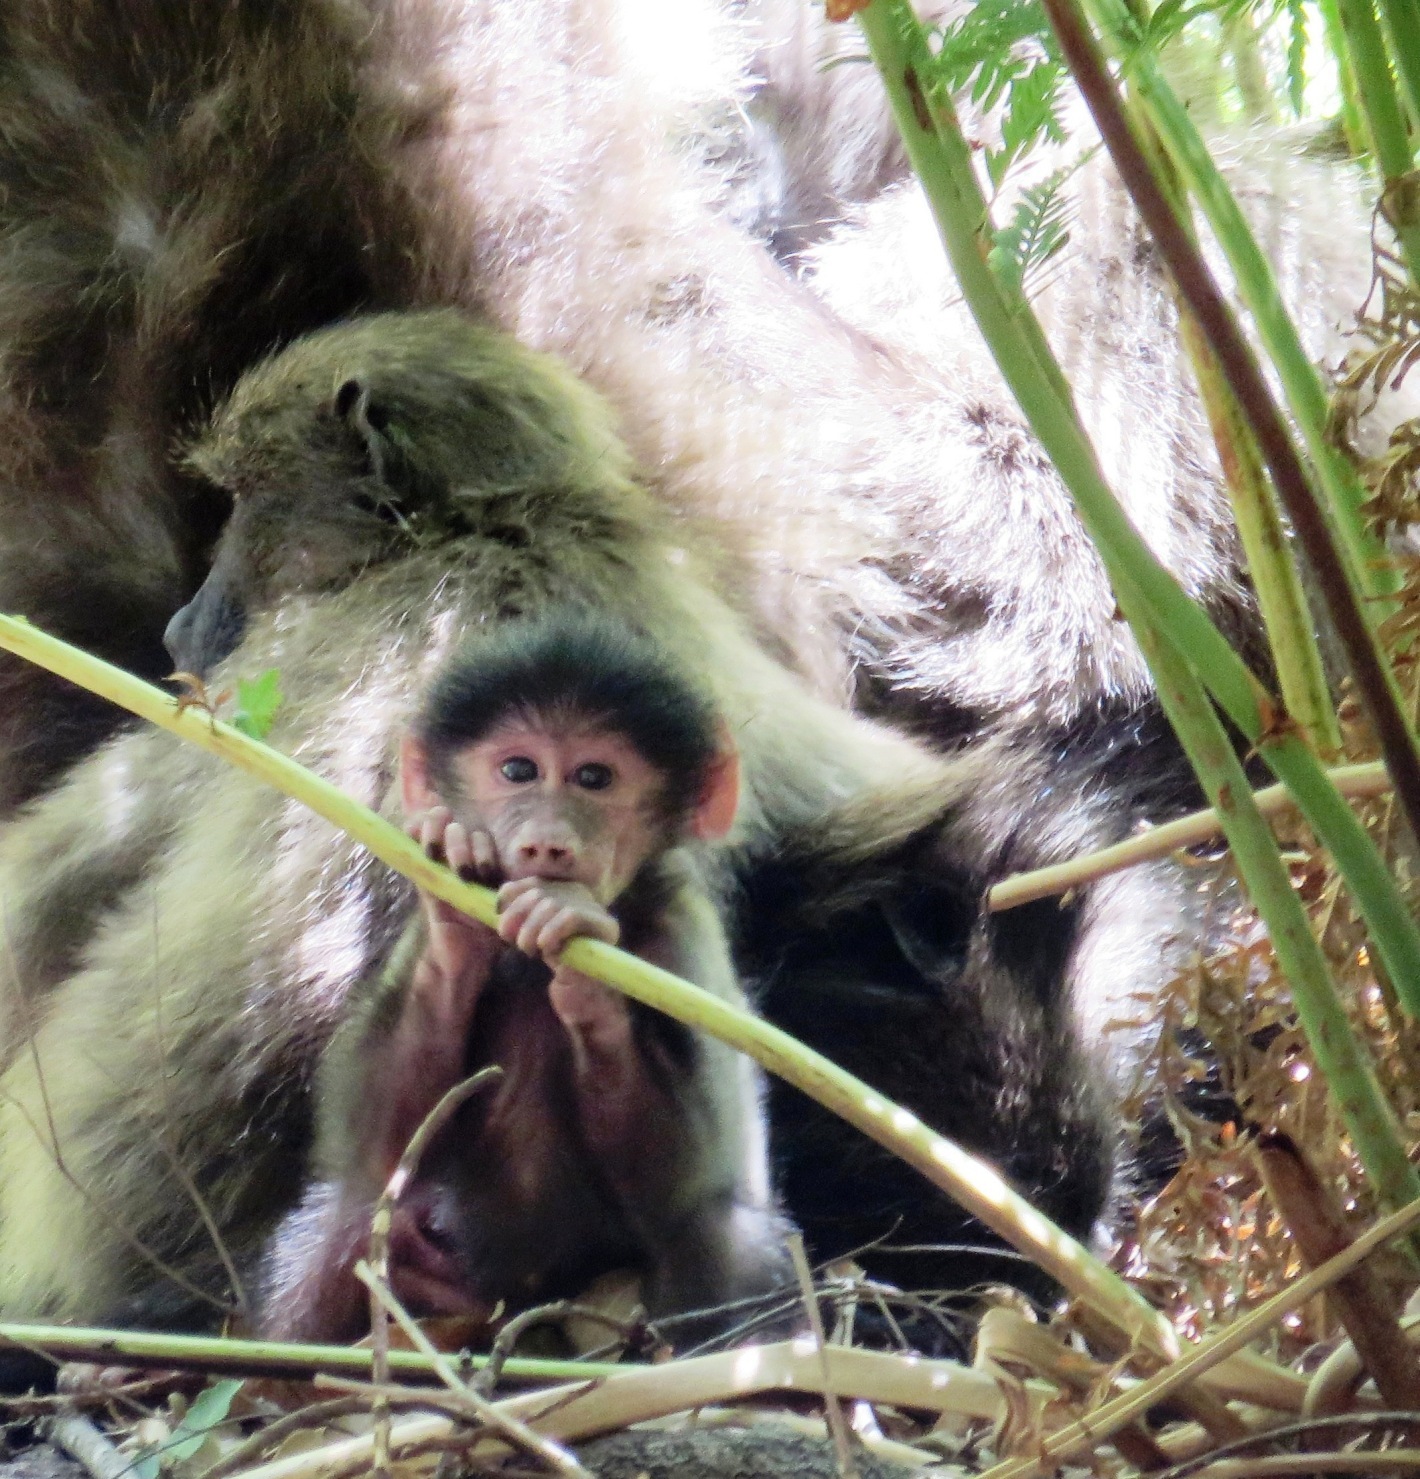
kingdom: Animalia
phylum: Chordata
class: Mammalia
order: Primates
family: Cercopithecidae
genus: Papio
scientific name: Papio ursinus
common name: Chacma baboon
